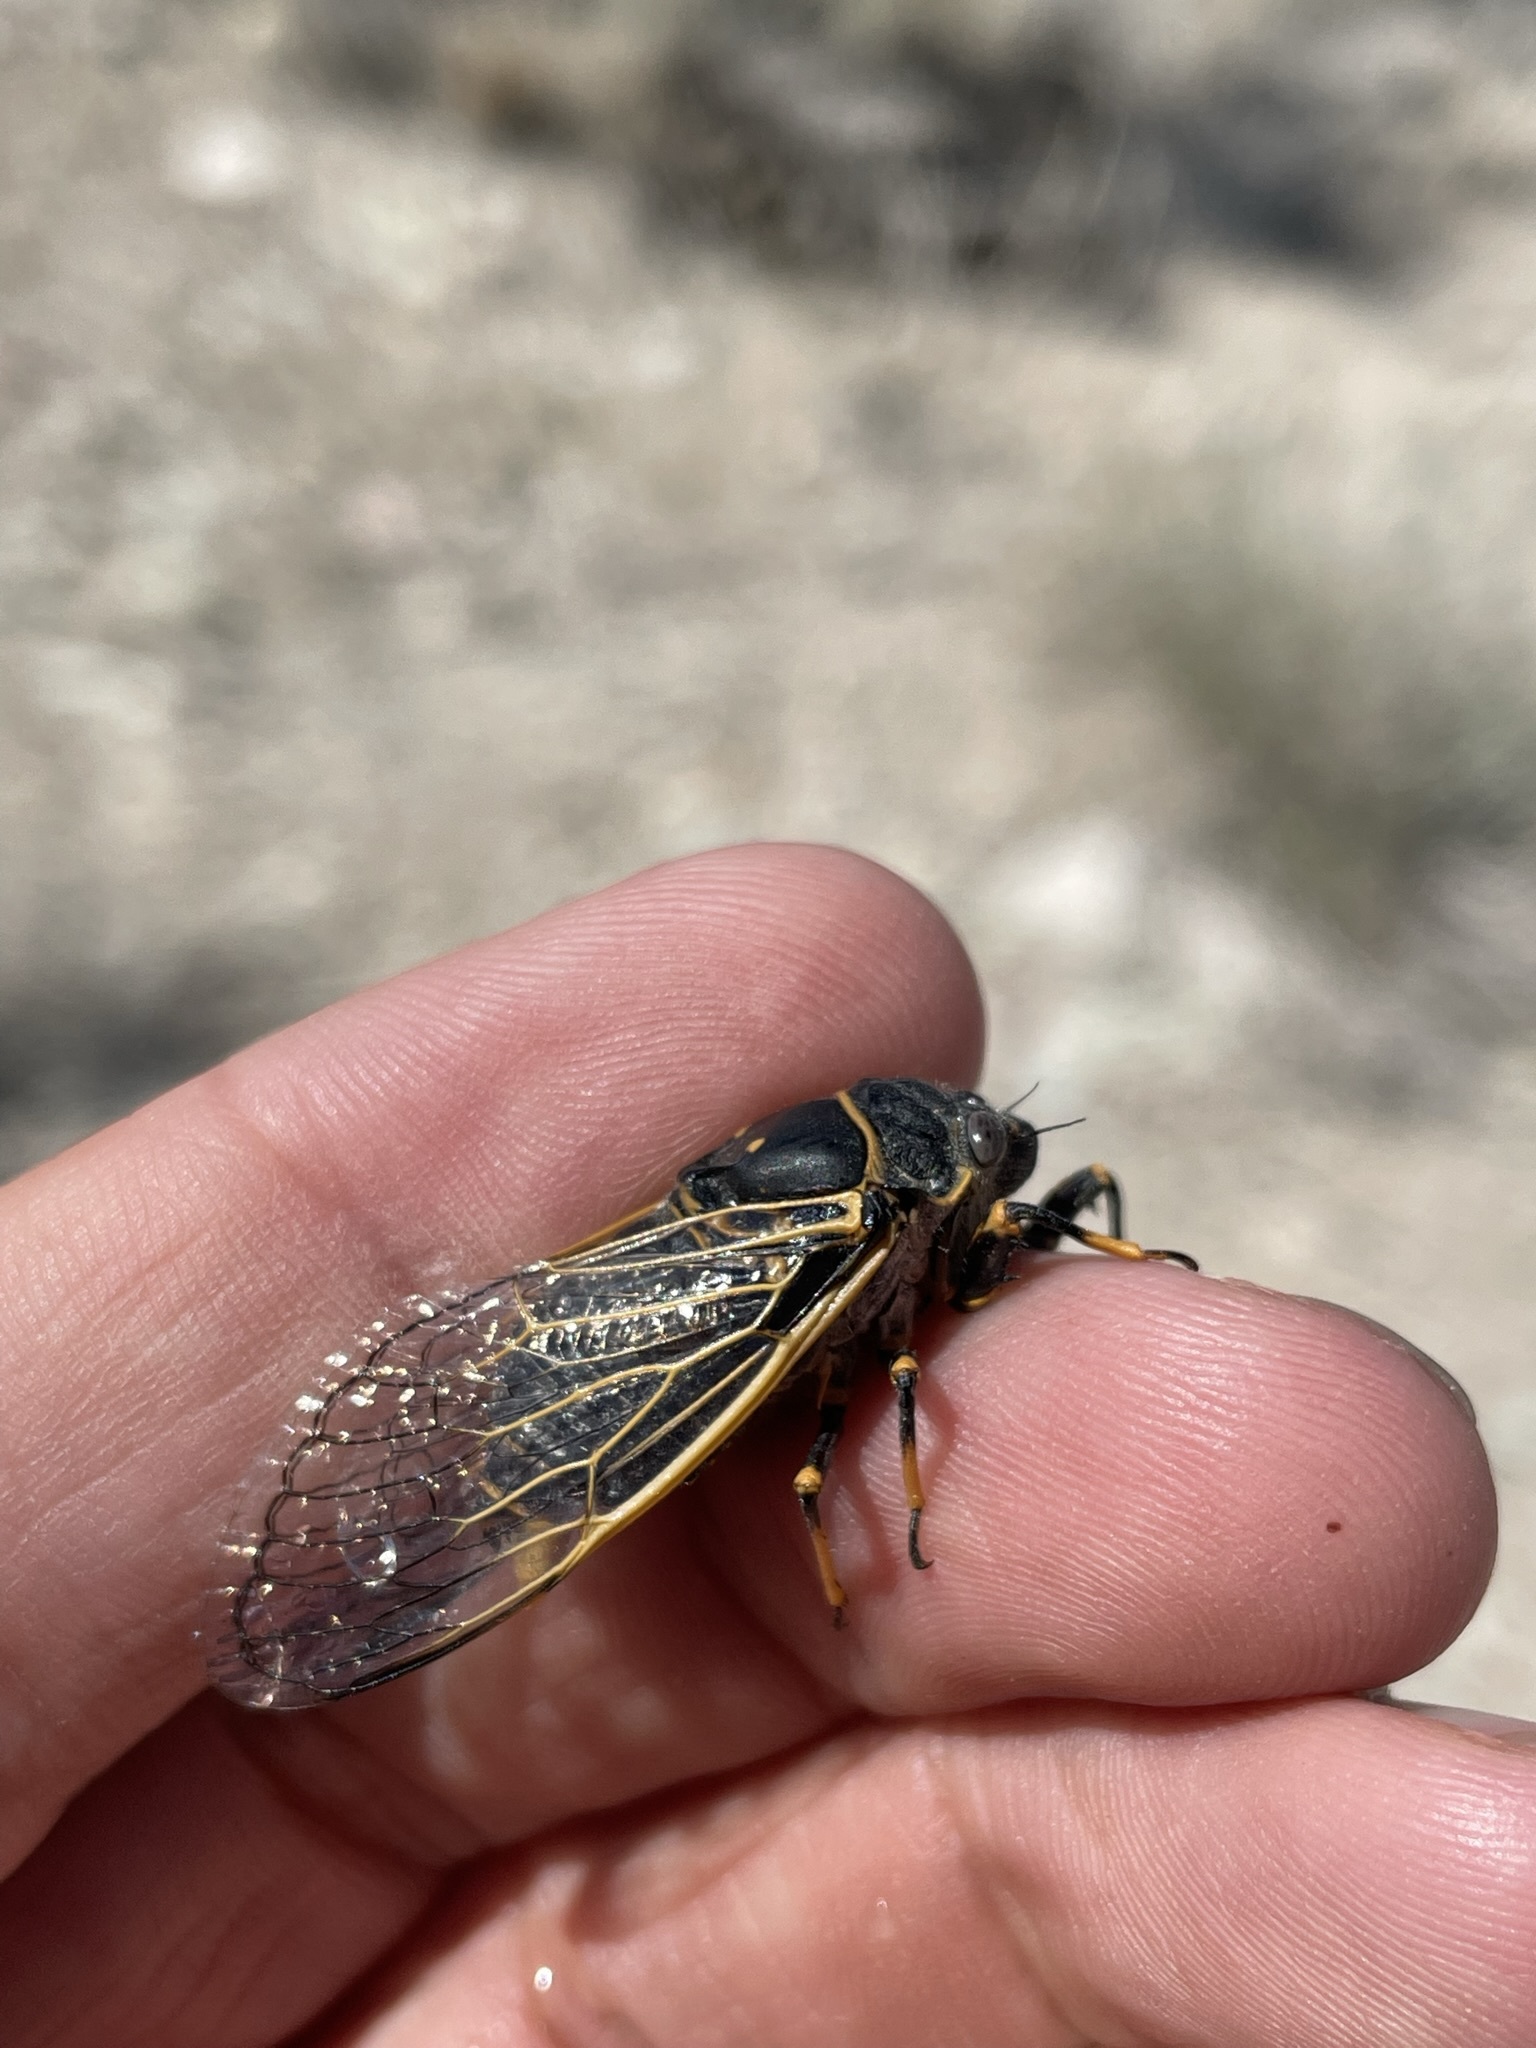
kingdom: Animalia
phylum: Arthropoda
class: Insecta
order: Hemiptera
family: Cicadidae
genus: Okanagana
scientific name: Okanagana gibbera
